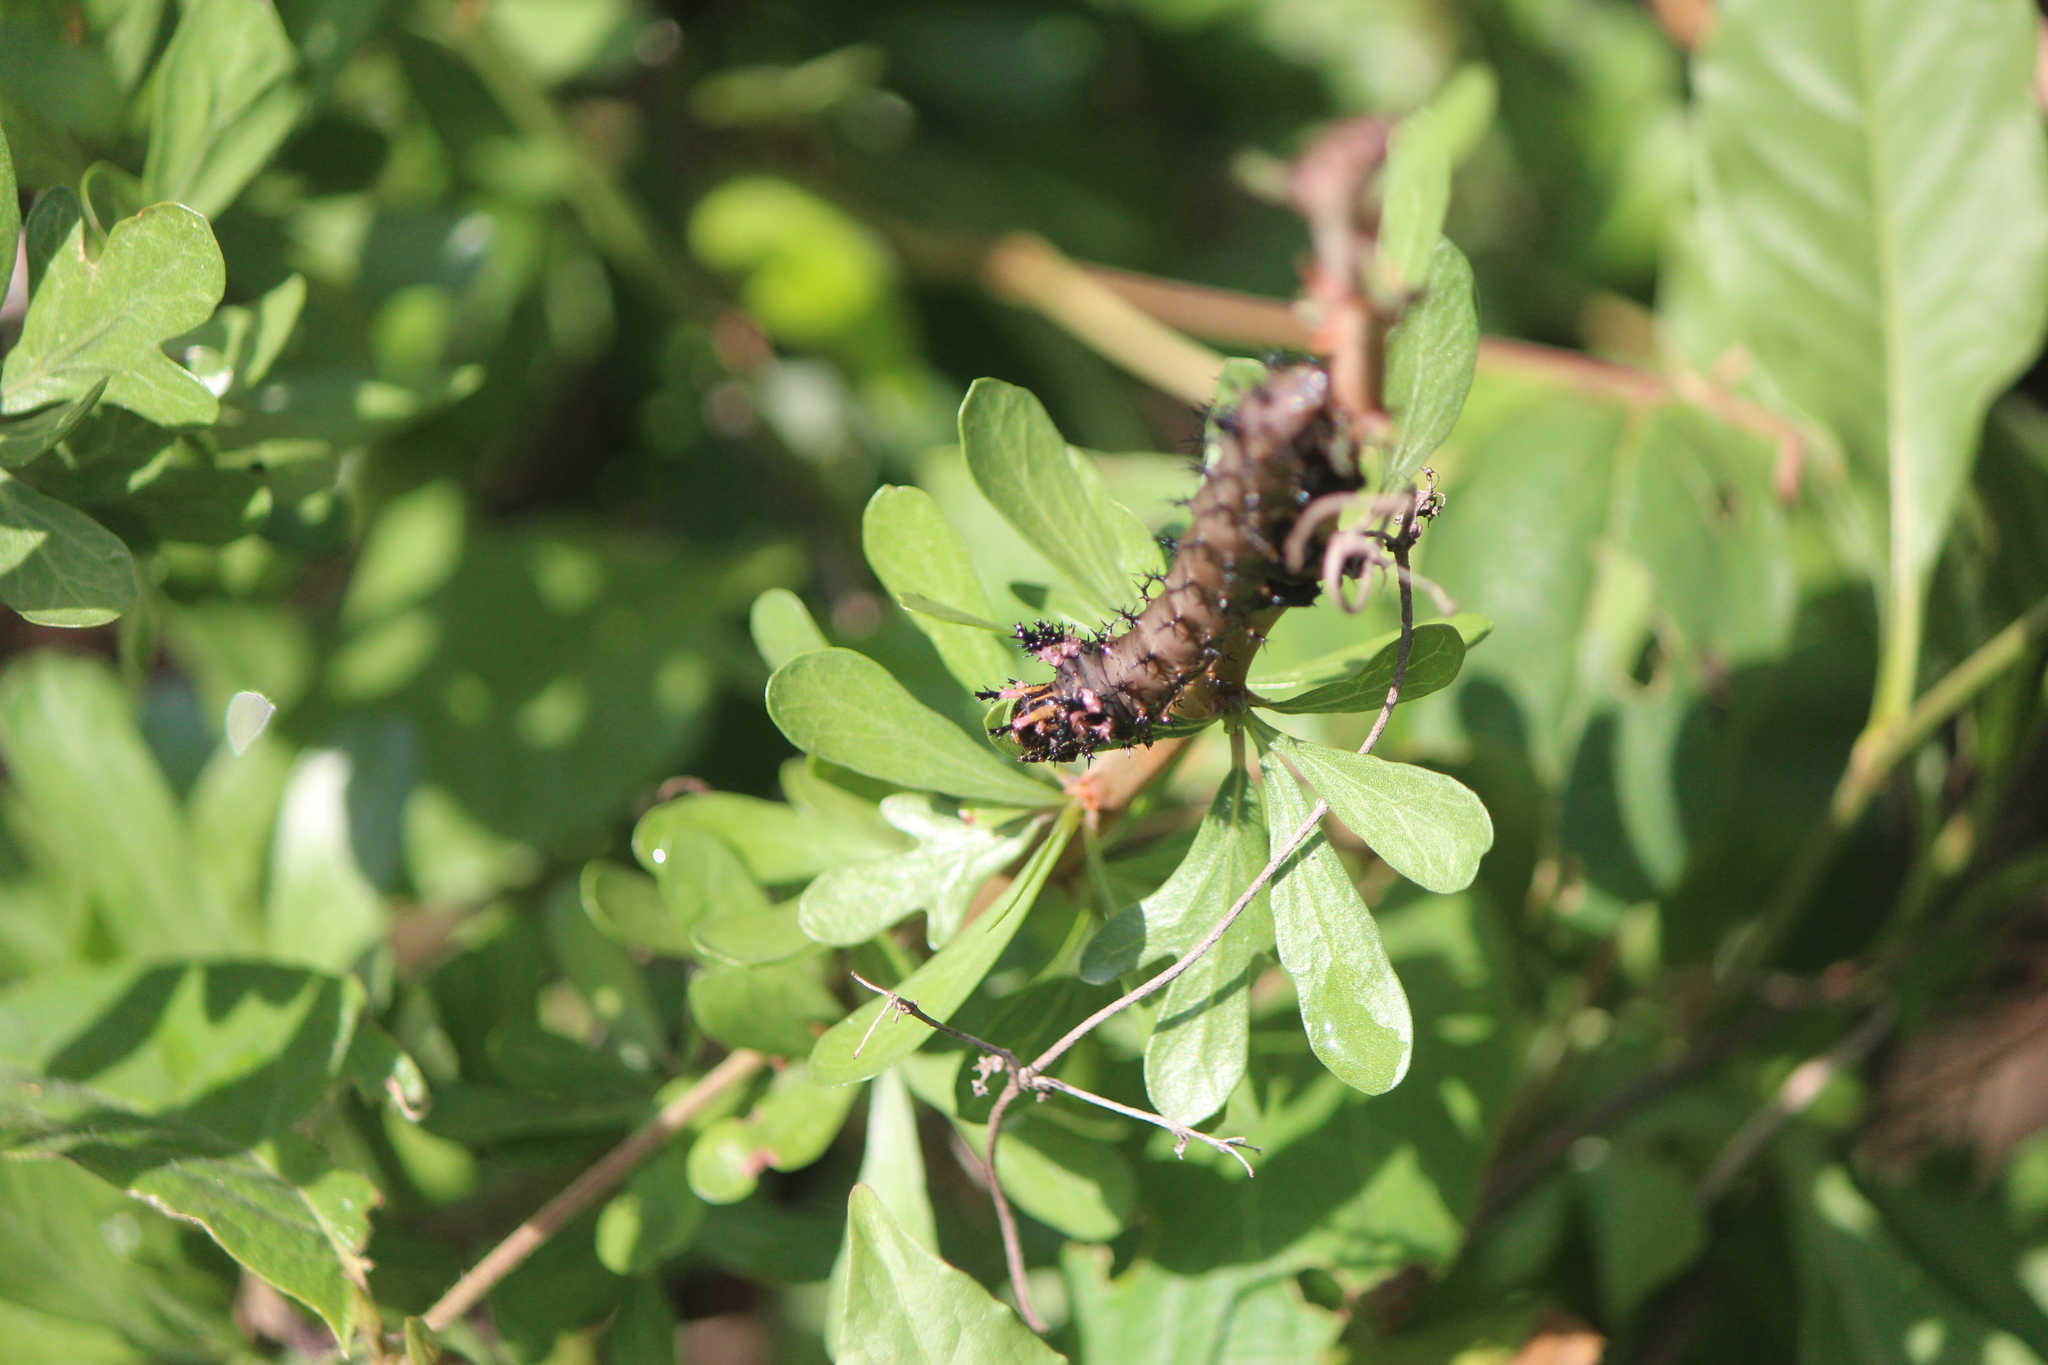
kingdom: Animalia
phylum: Arthropoda
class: Insecta
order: Lepidoptera
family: Saturniidae
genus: Citheronia
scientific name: Citheronia azteca
